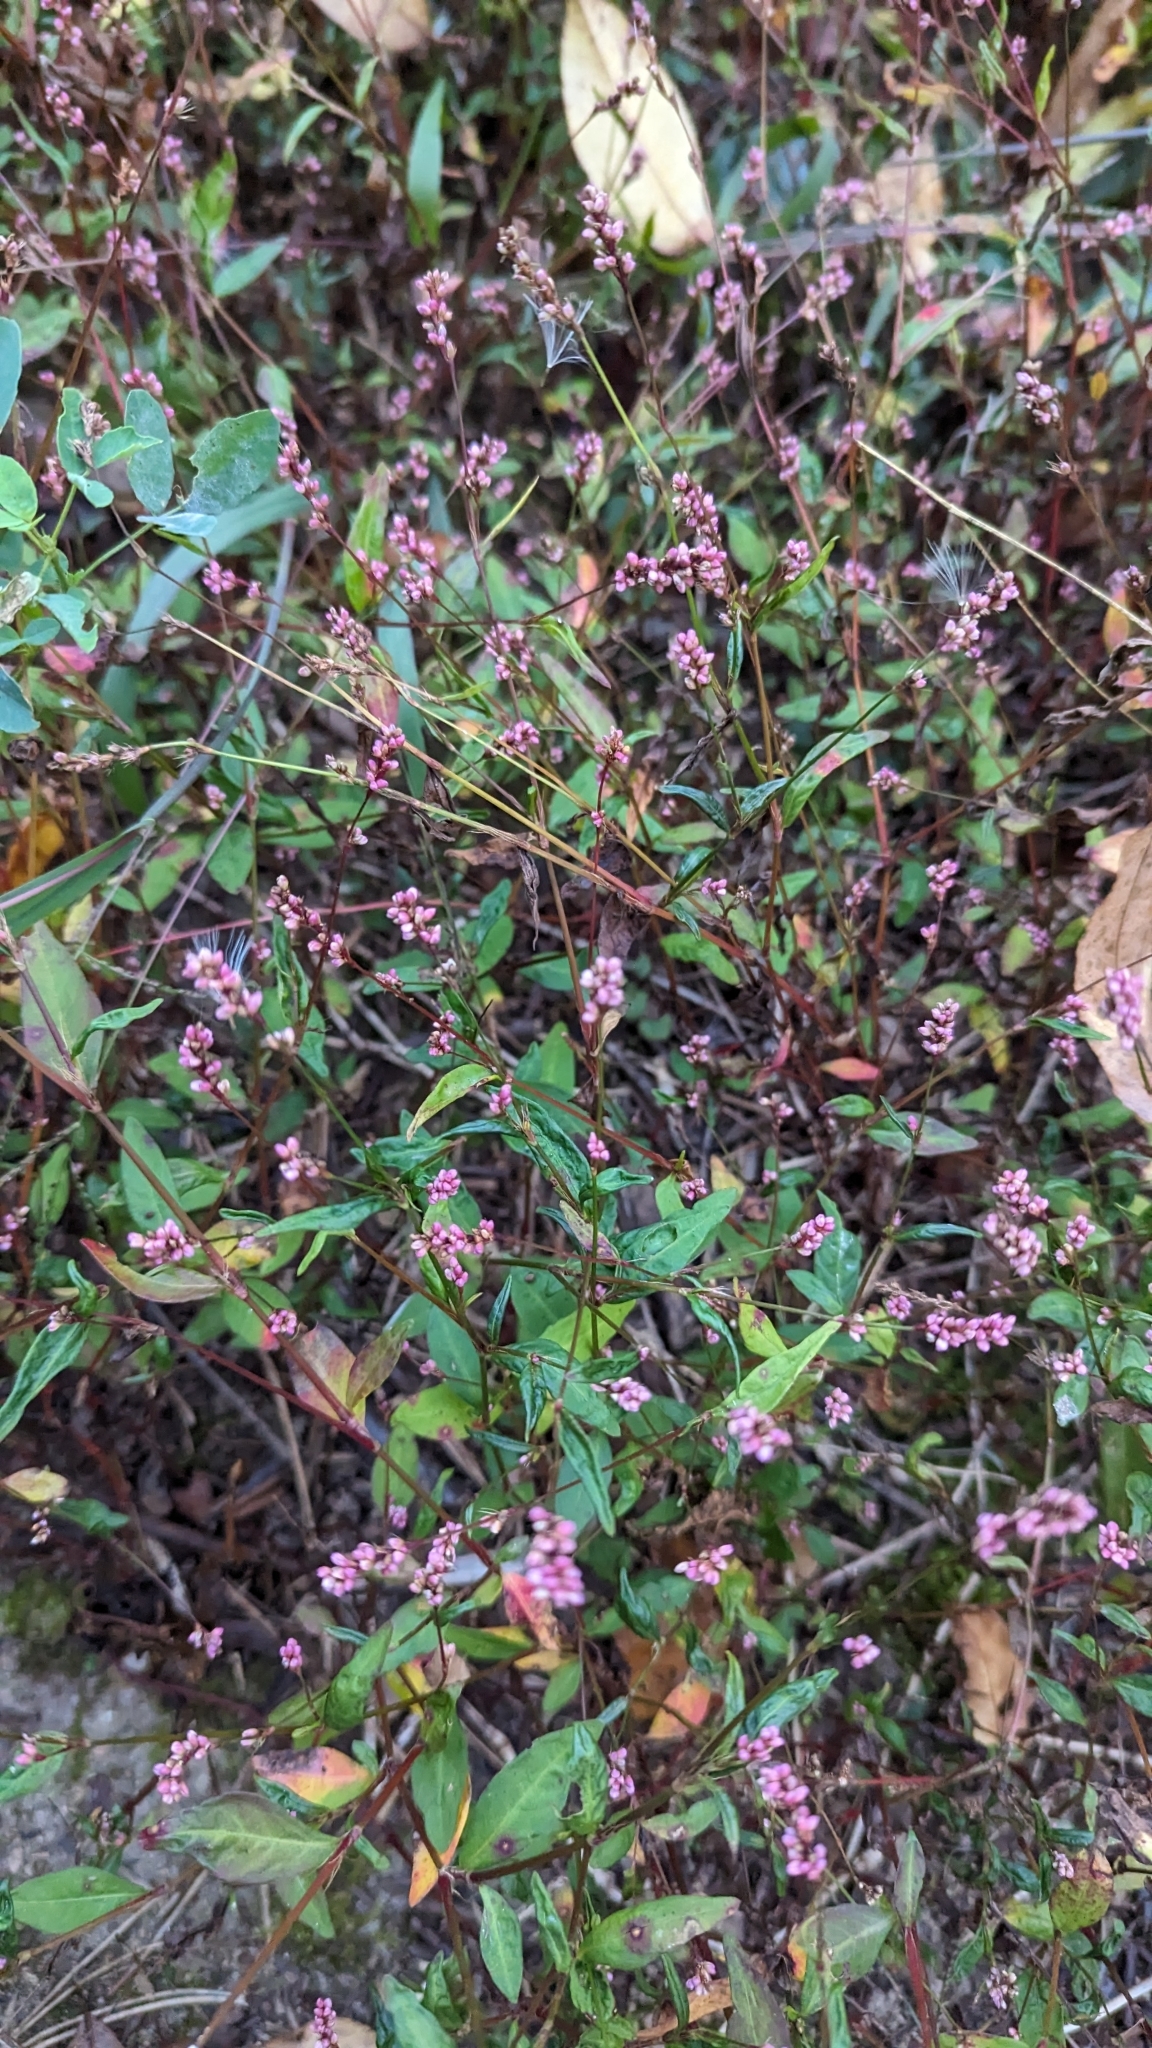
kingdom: Plantae
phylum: Tracheophyta
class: Magnoliopsida
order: Caryophyllales
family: Polygonaceae
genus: Persicaria
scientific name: Persicaria longiseta
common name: Bristly lady's-thumb
